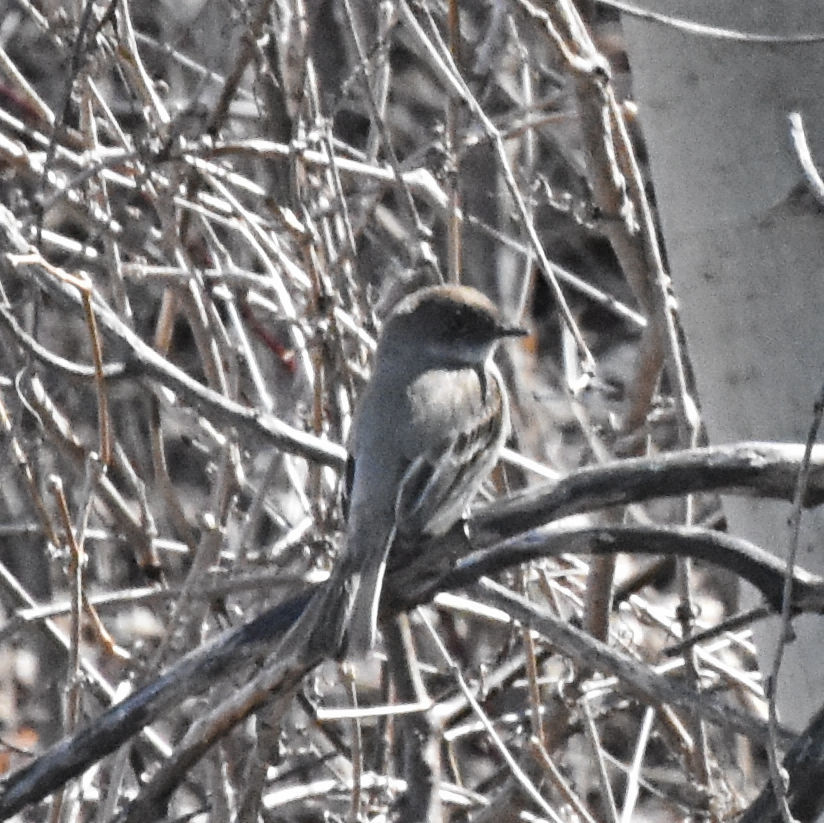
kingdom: Animalia
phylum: Chordata
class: Aves
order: Passeriformes
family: Tyrannidae
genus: Sayornis
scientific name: Sayornis phoebe
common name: Eastern phoebe
